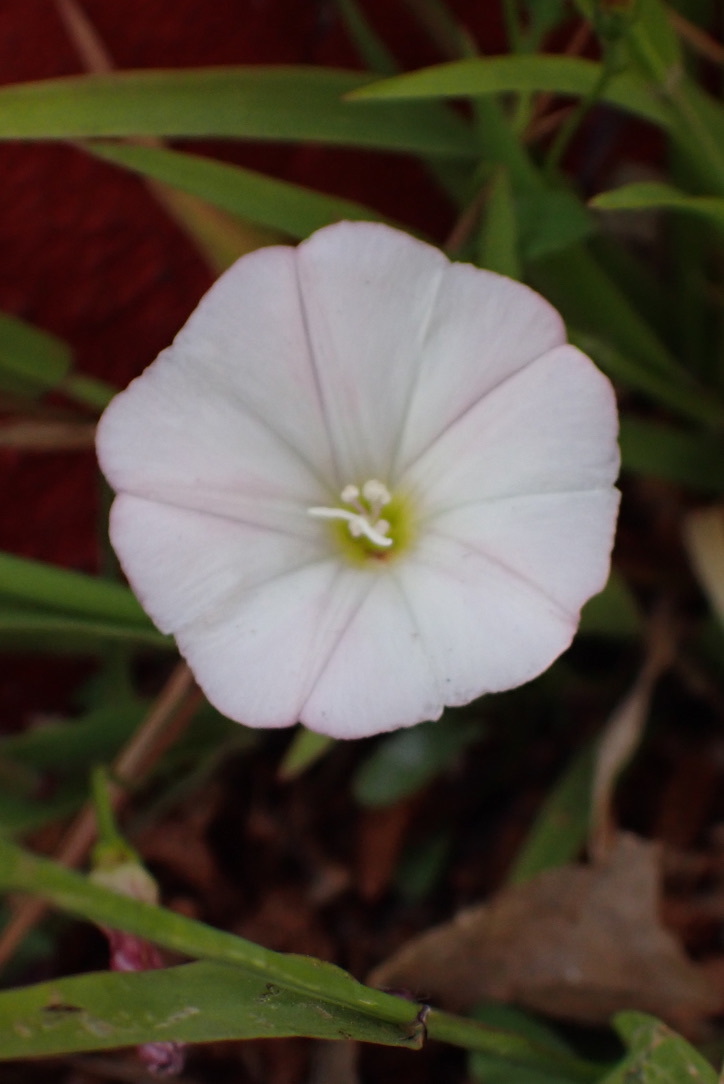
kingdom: Plantae
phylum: Tracheophyta
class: Magnoliopsida
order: Solanales
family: Convolvulaceae
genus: Convolvulus
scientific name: Convolvulus arvensis
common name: Field bindweed
